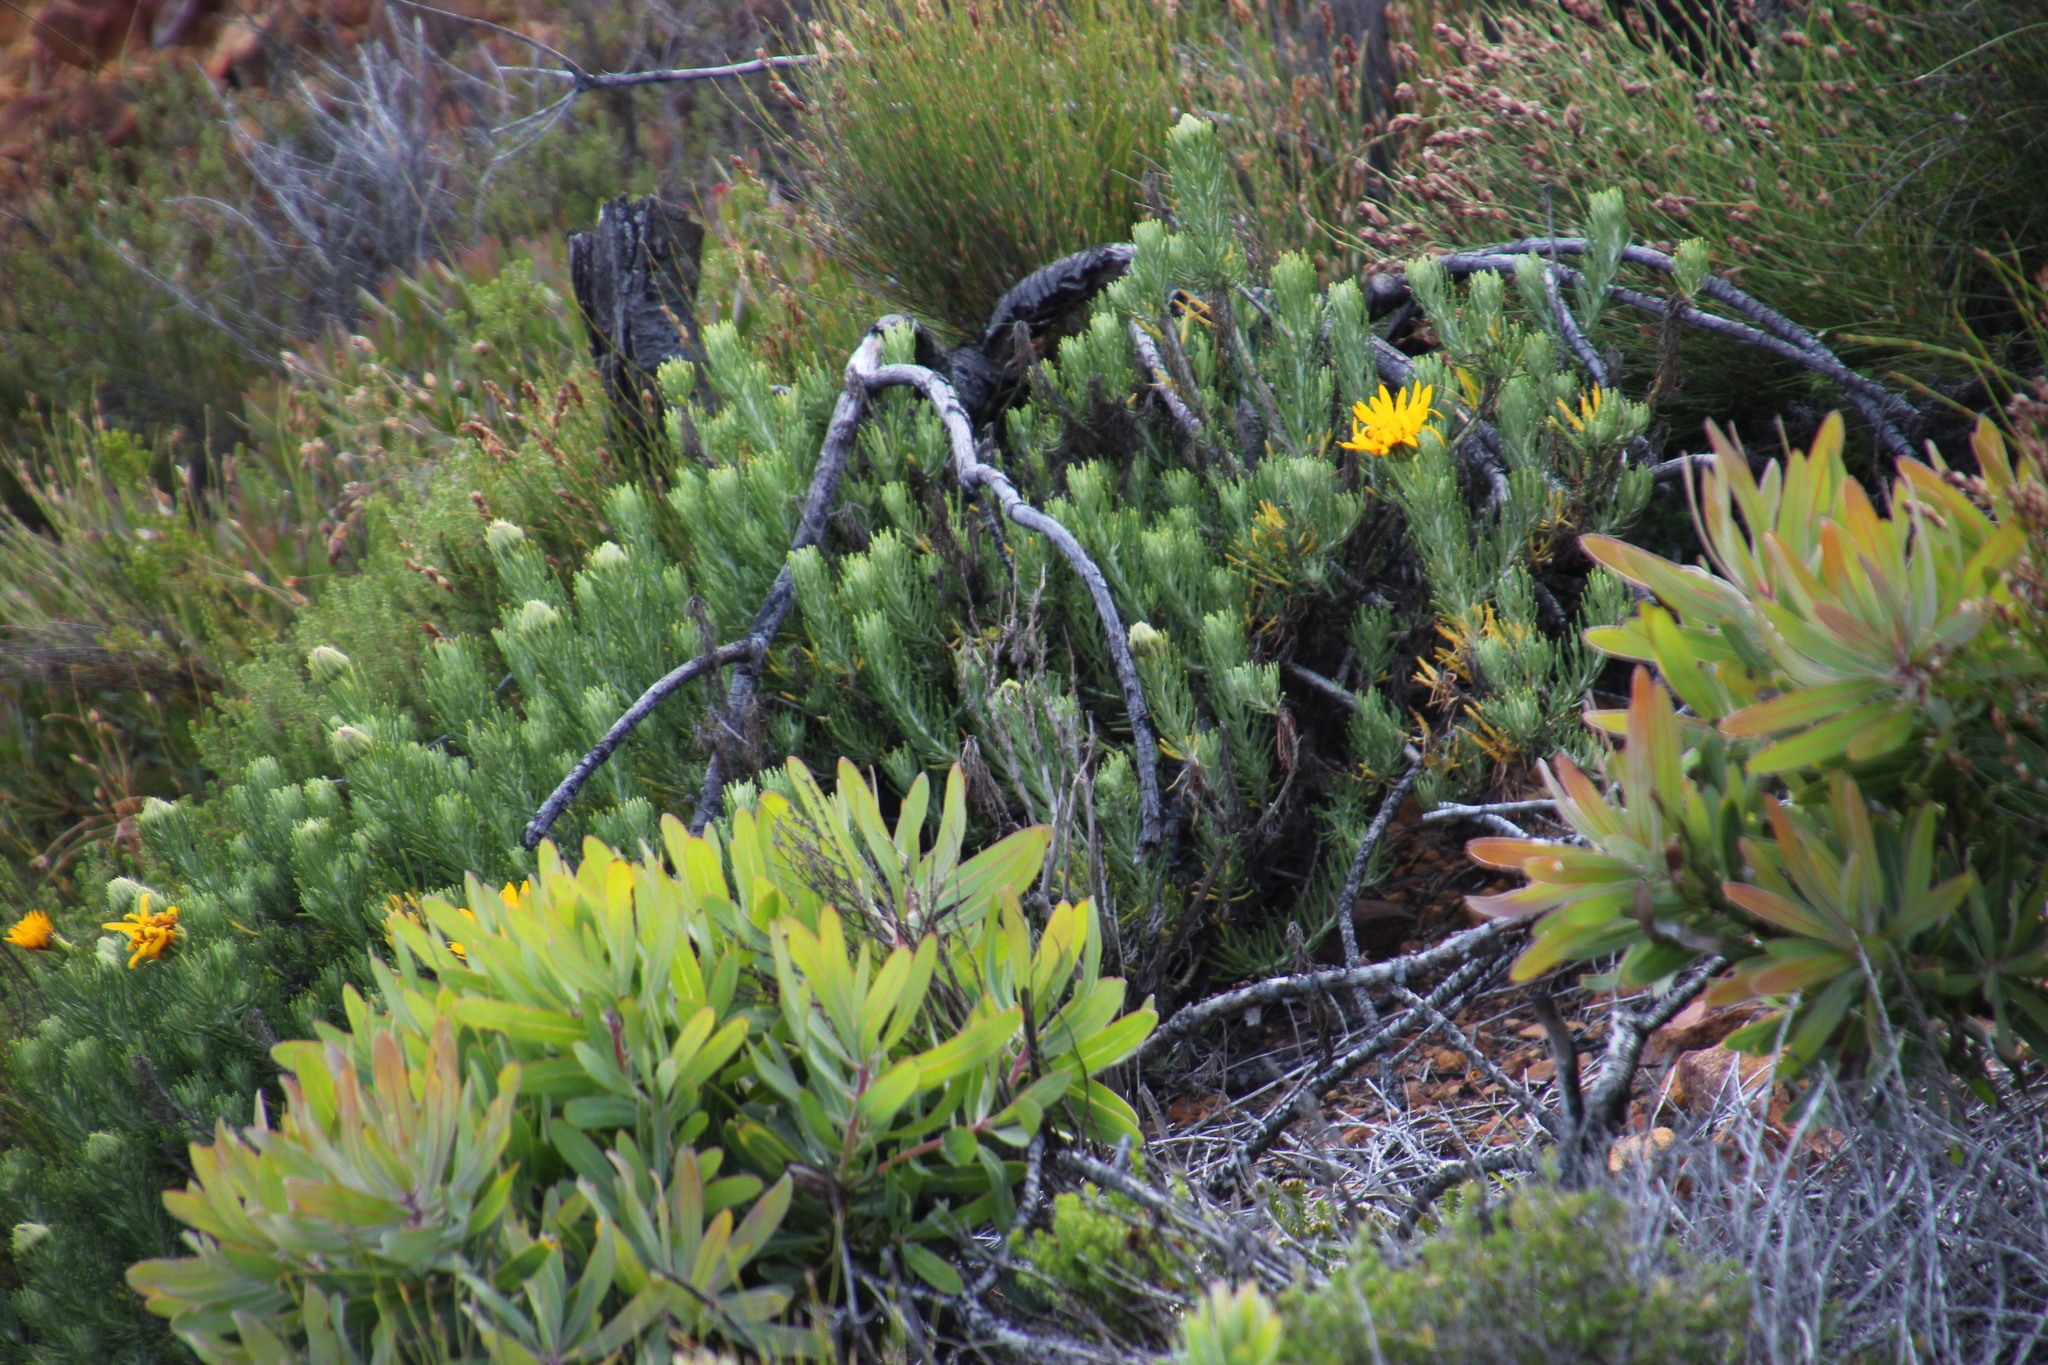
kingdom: Plantae
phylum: Tracheophyta
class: Magnoliopsida
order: Asterales
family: Asteraceae
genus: Heterolepis
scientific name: Heterolepis aliena
